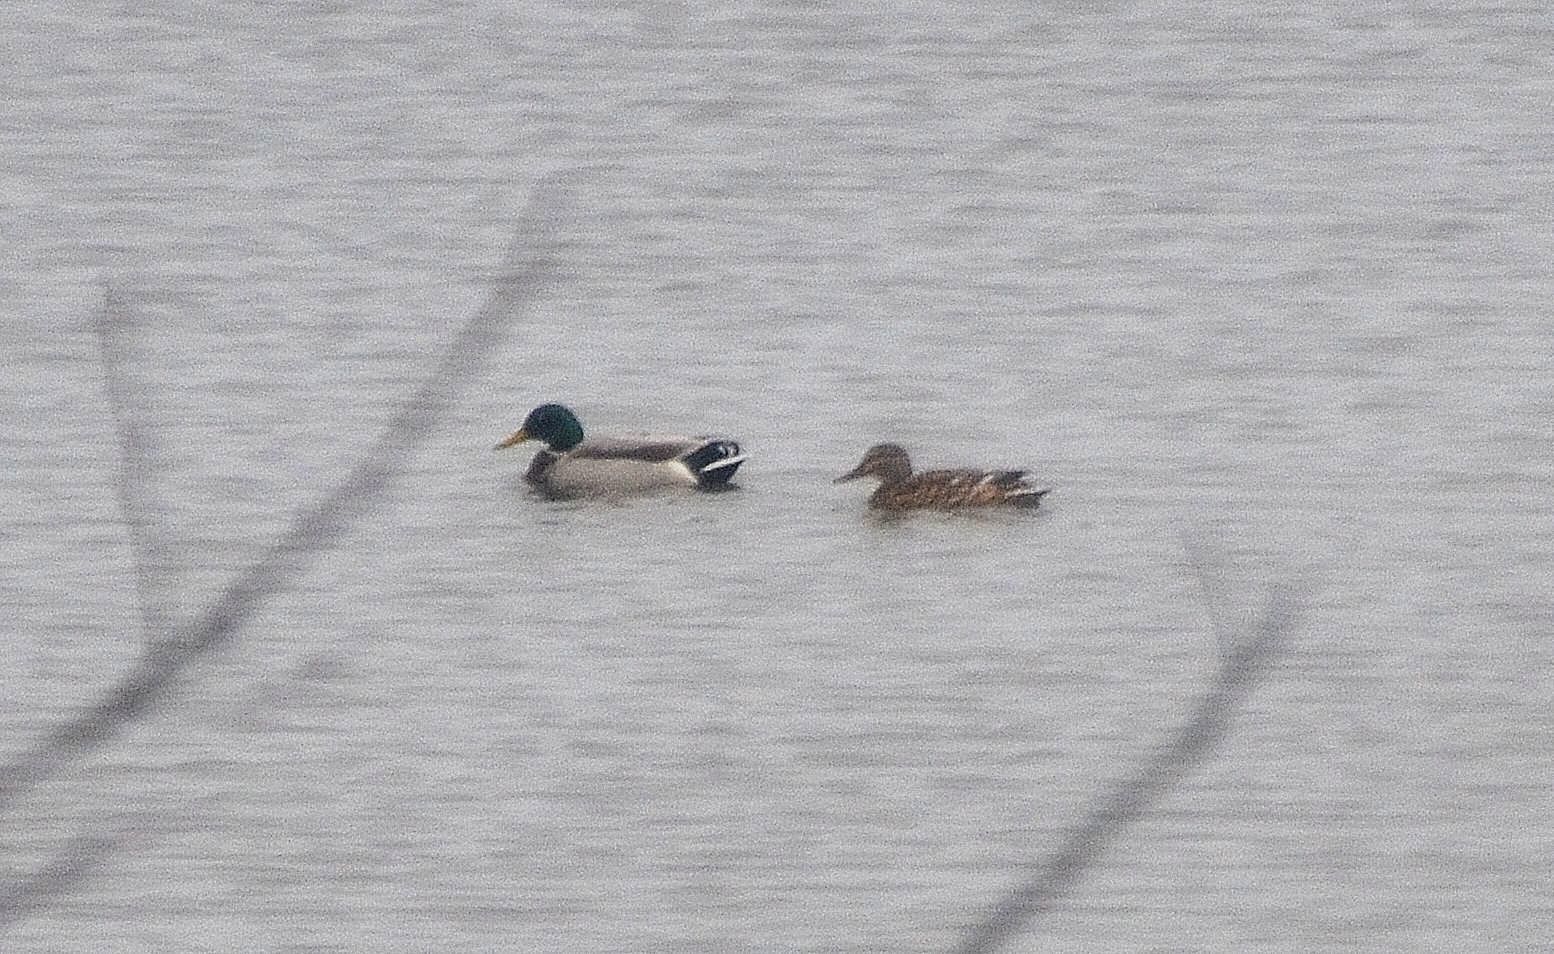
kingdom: Animalia
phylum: Chordata
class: Aves
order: Anseriformes
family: Anatidae
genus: Anas
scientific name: Anas platyrhynchos
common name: Mallard
